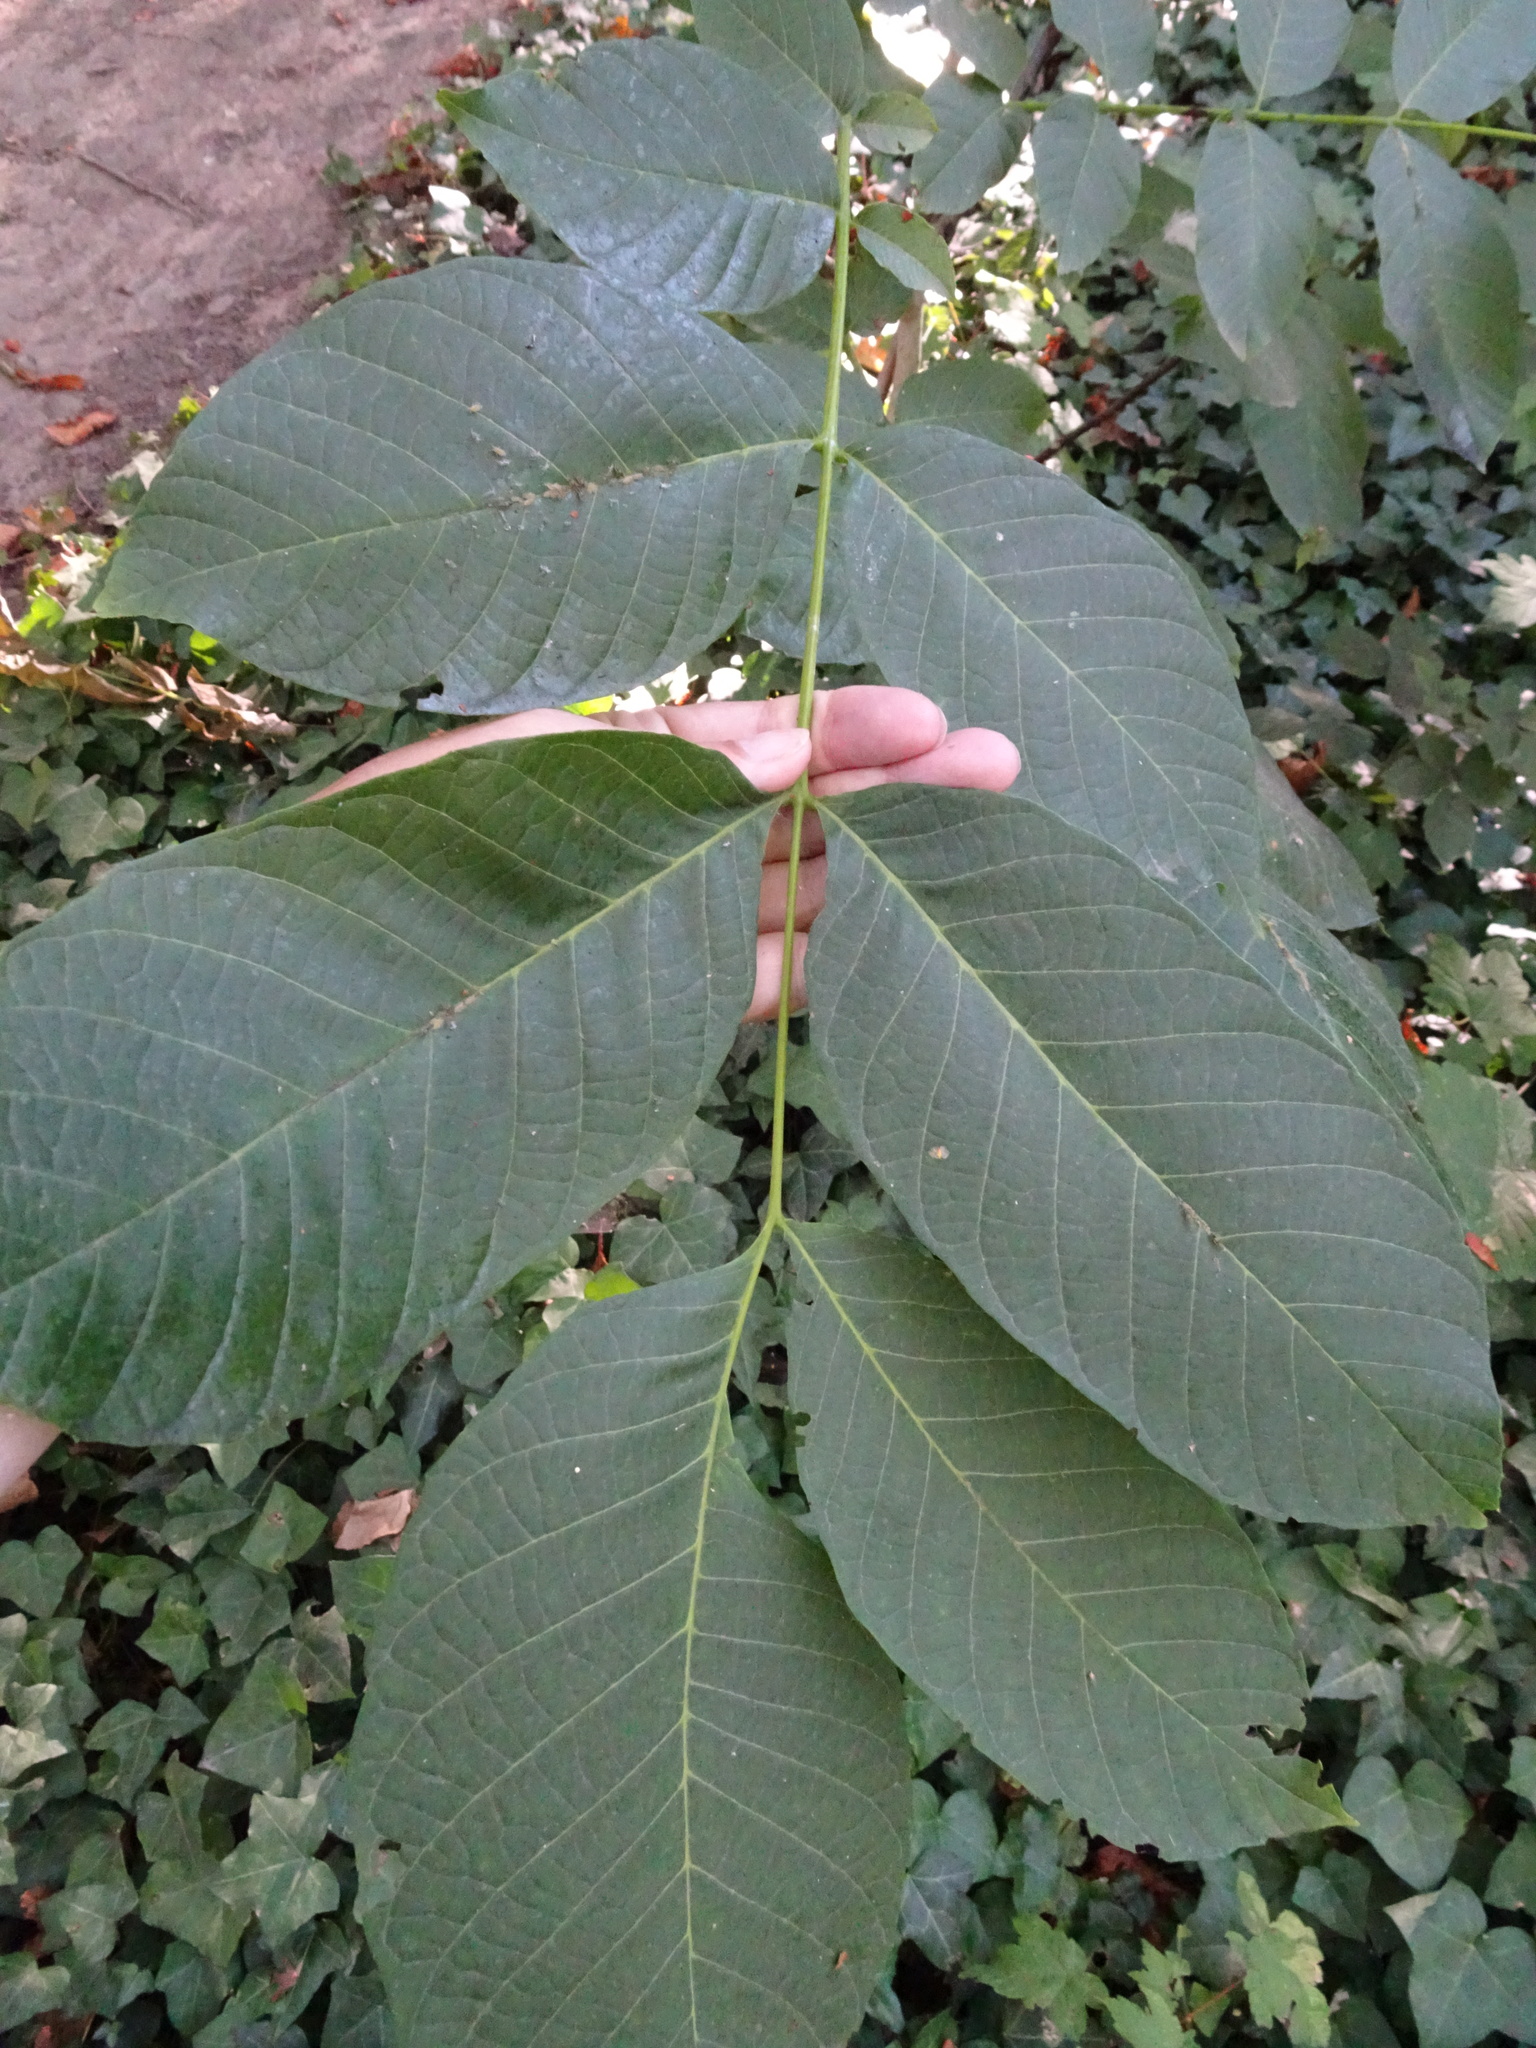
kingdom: Plantae
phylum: Tracheophyta
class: Magnoliopsida
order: Fagales
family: Juglandaceae
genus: Juglans
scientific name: Juglans regia
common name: Walnut
